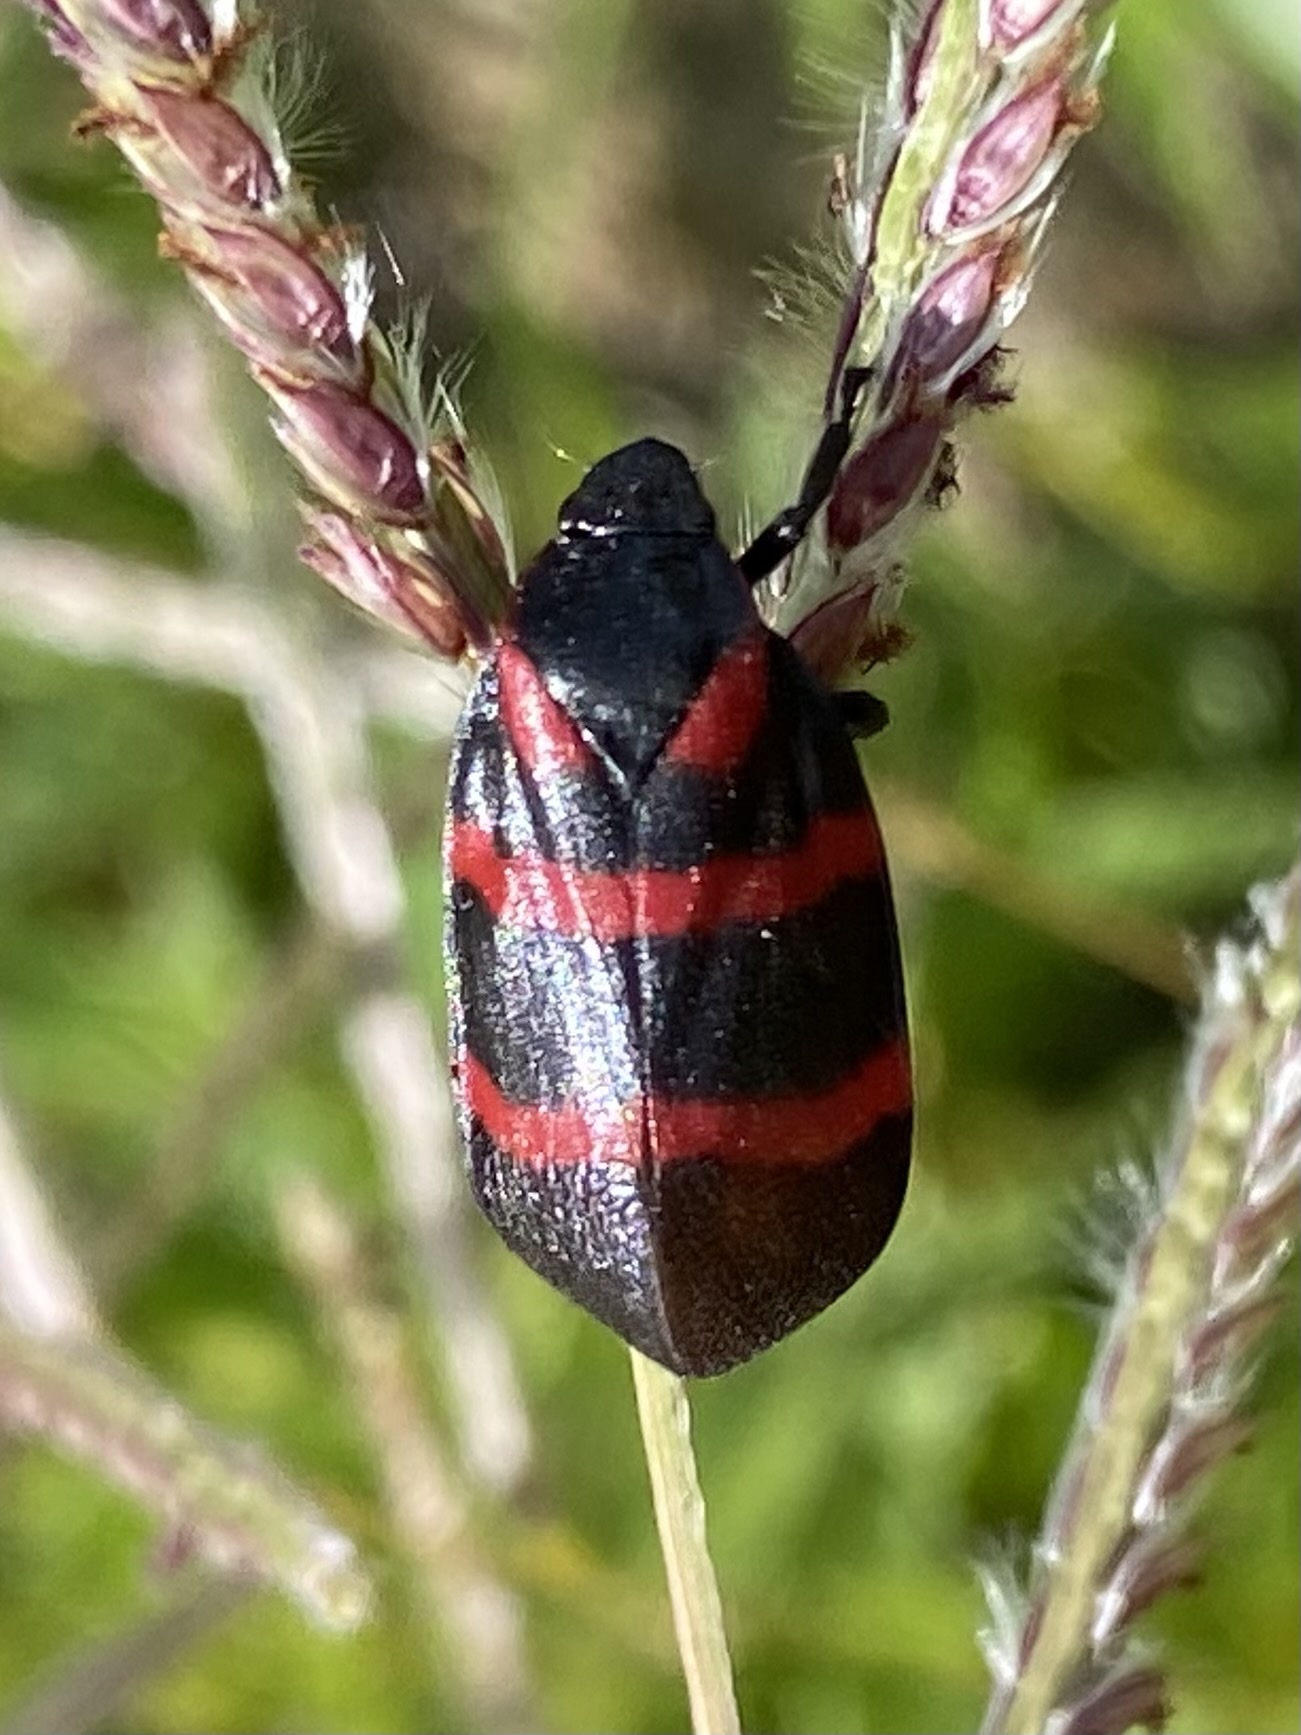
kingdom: Animalia
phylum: Arthropoda
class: Insecta
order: Hemiptera
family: Cercopidae
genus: Huaina
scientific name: Huaina inca
